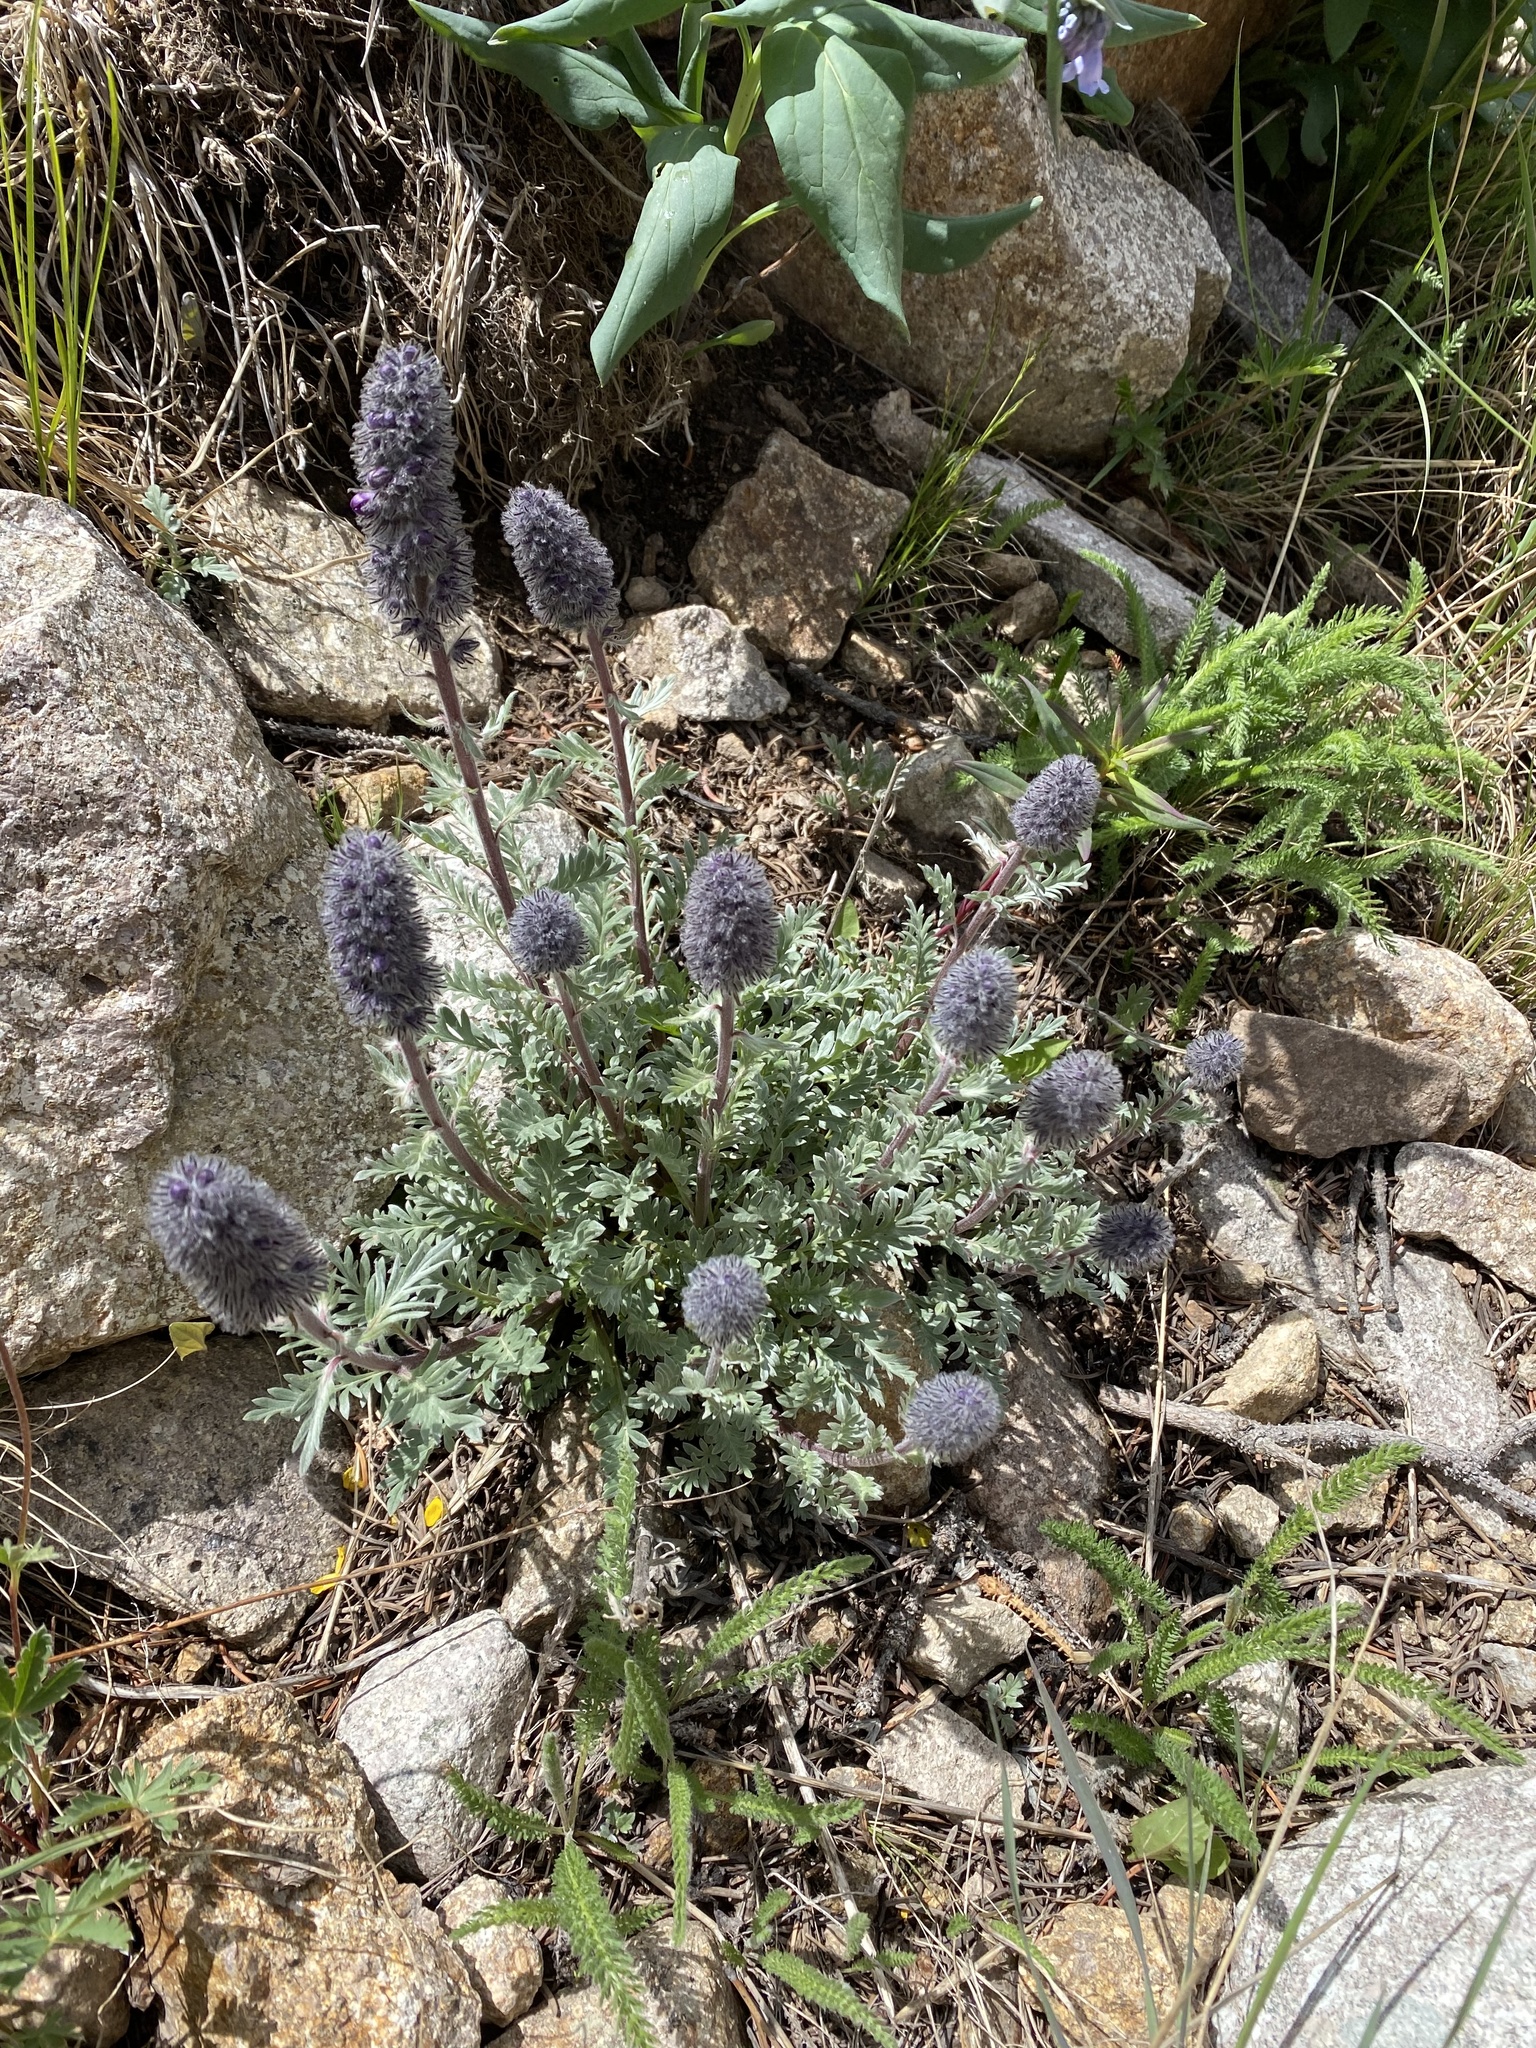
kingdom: Plantae
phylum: Tracheophyta
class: Magnoliopsida
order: Boraginales
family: Hydrophyllaceae
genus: Phacelia
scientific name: Phacelia sericea
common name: Silky phacelia
